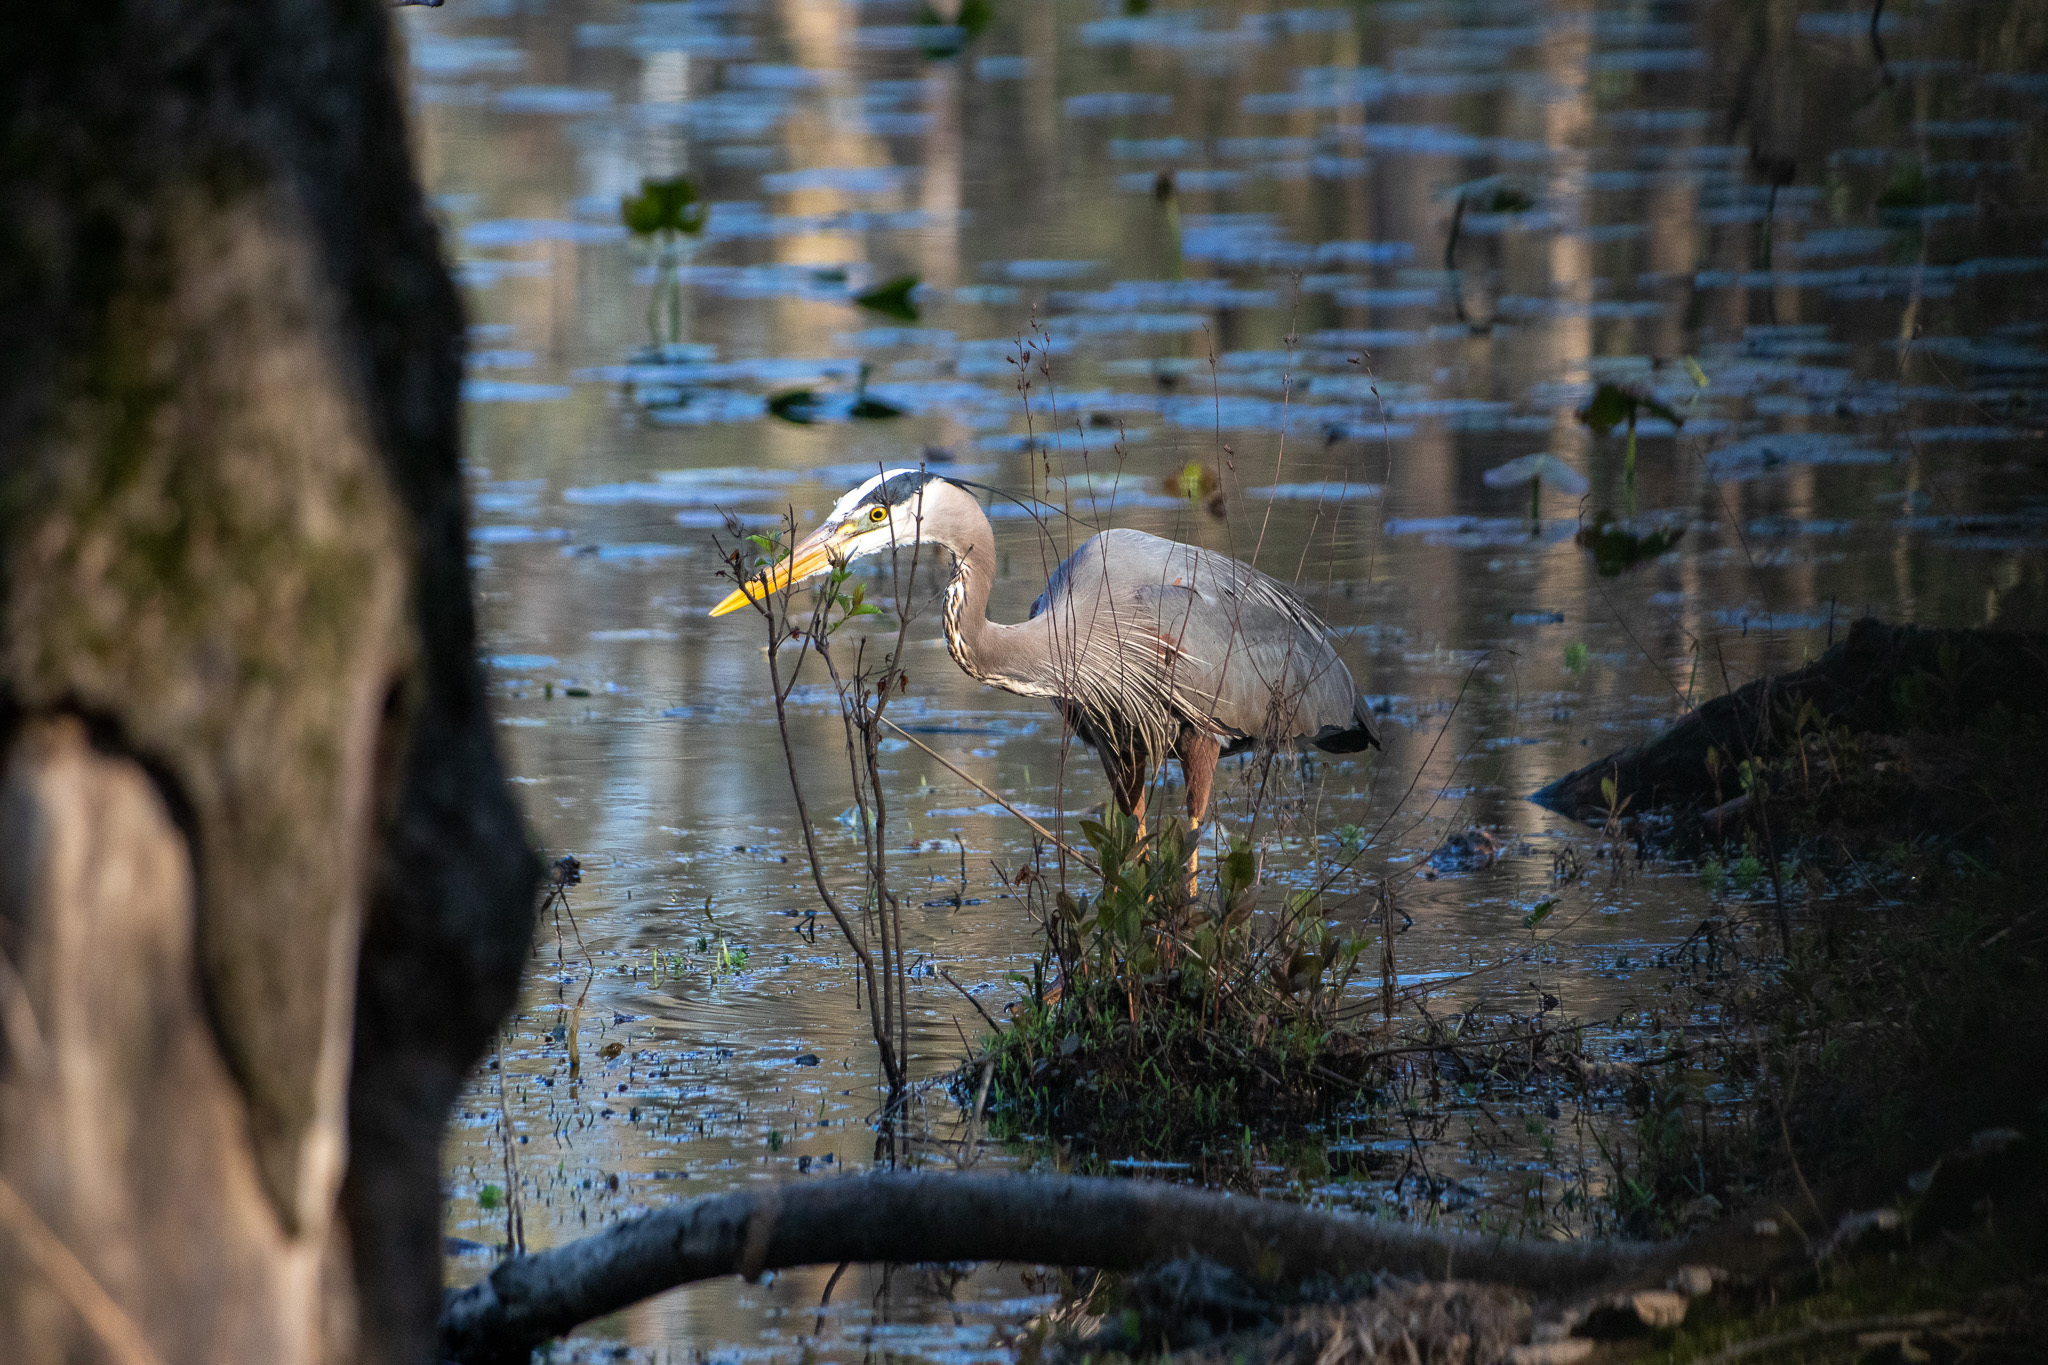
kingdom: Animalia
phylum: Chordata
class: Aves
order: Pelecaniformes
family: Ardeidae
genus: Ardea
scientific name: Ardea herodias
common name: Great blue heron
